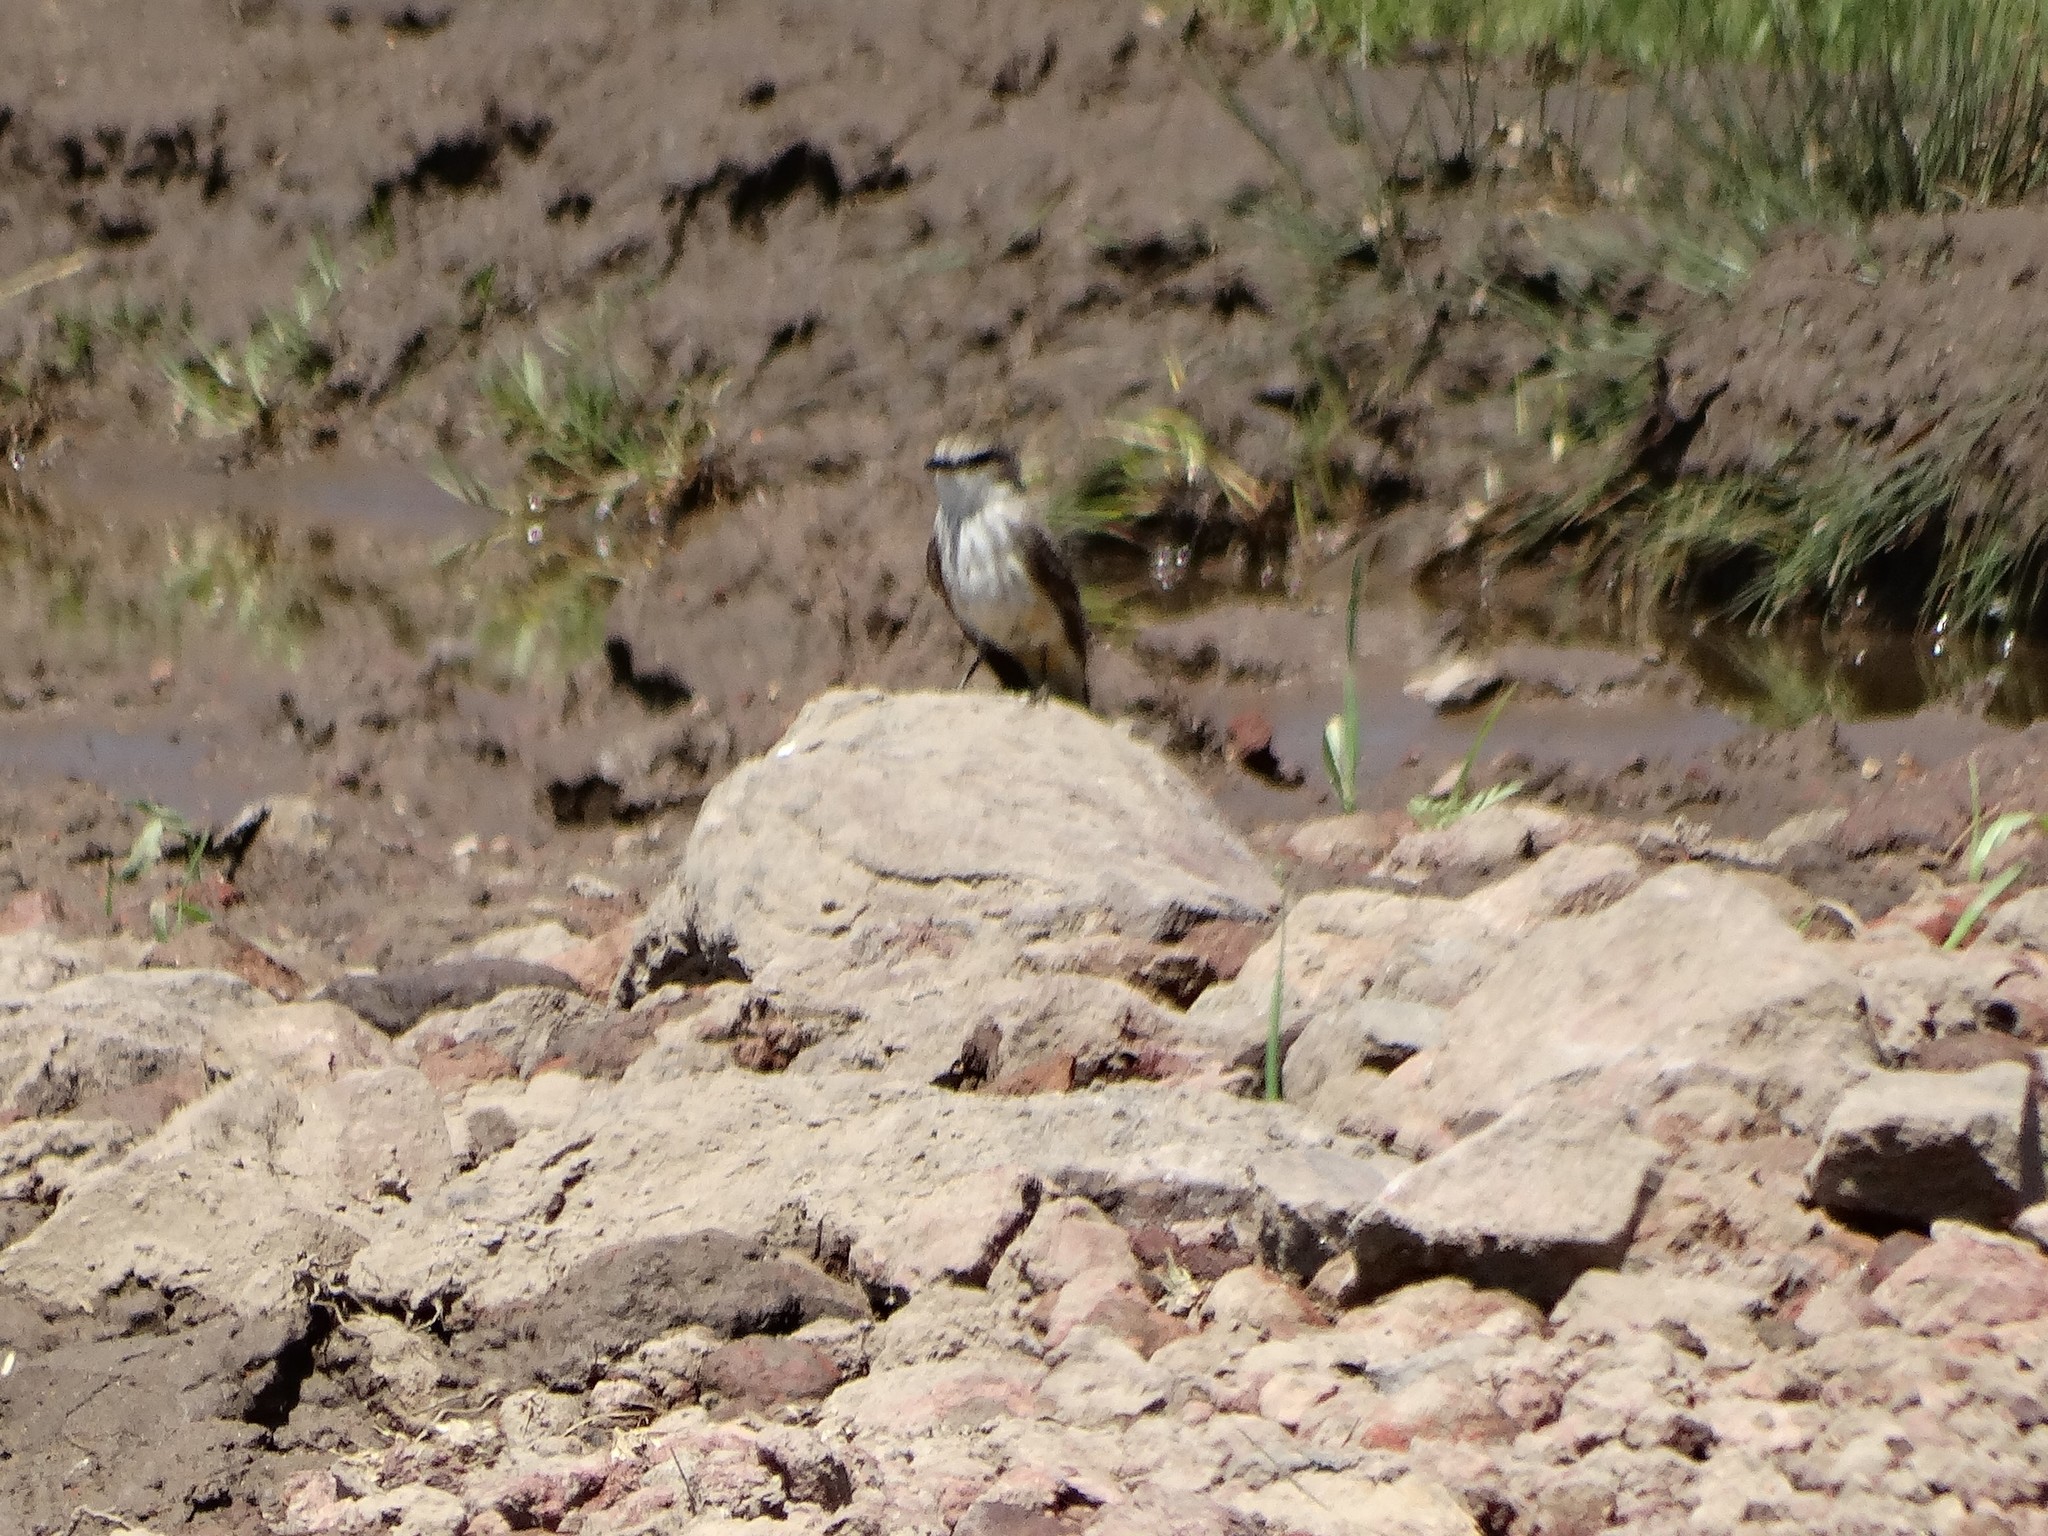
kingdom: Animalia
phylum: Chordata
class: Aves
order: Passeriformes
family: Tyrannidae
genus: Pyrocephalus
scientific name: Pyrocephalus rubinus
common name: Vermilion flycatcher
